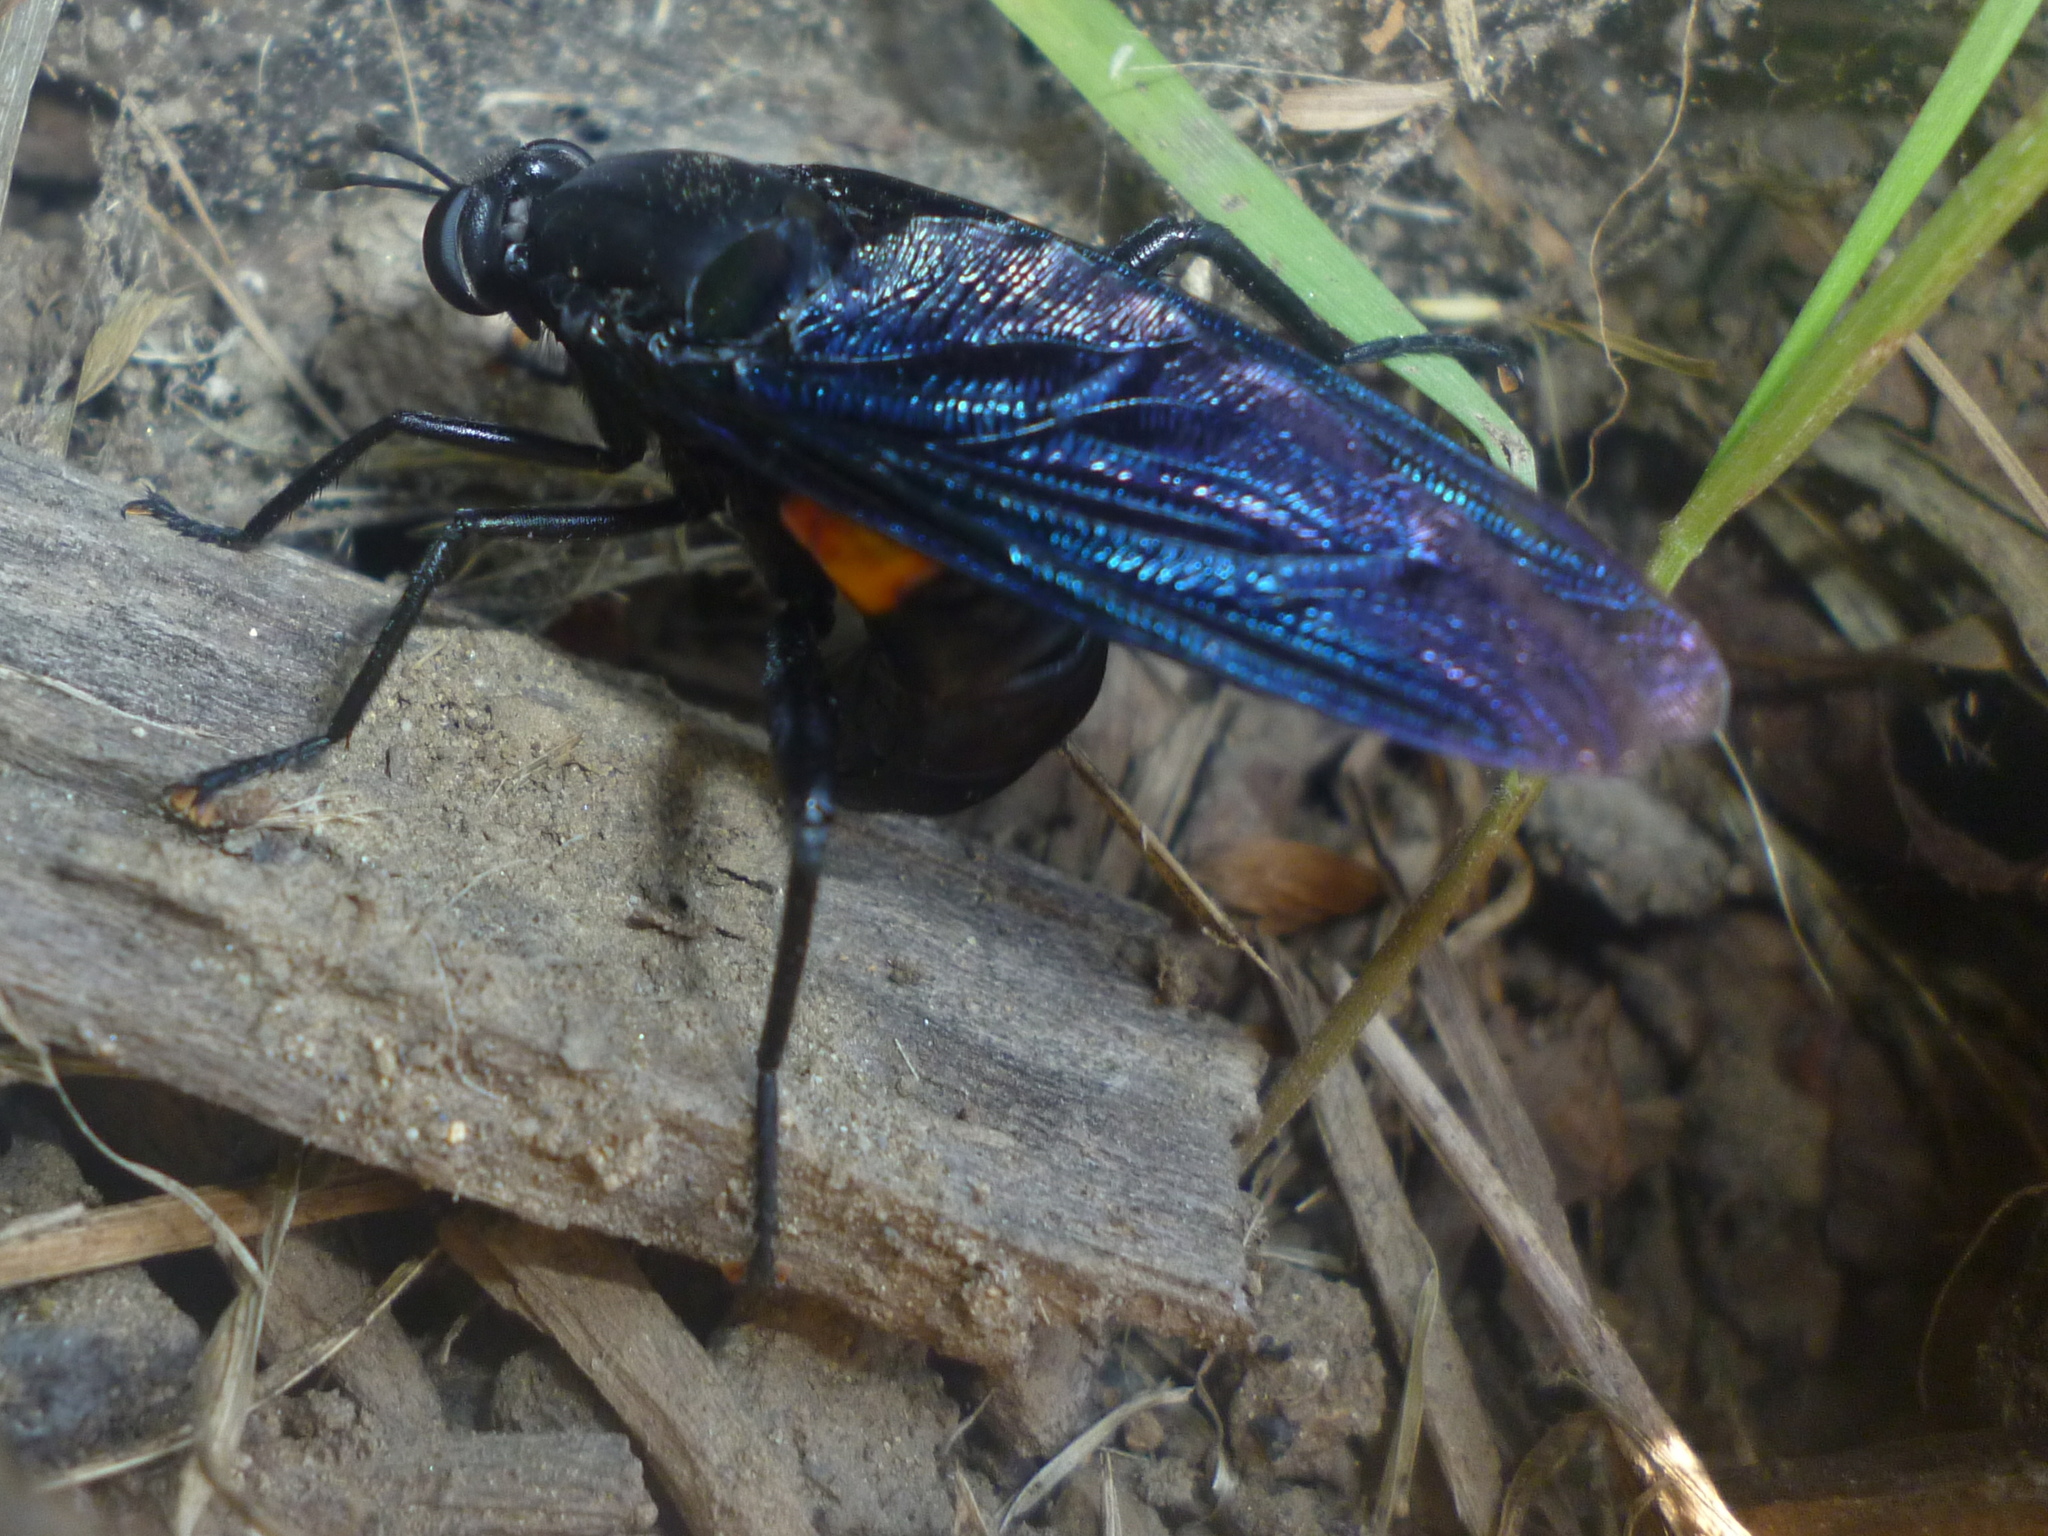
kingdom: Animalia
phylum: Arthropoda
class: Insecta
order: Diptera
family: Mydidae
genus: Mydas
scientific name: Mydas clavatus
